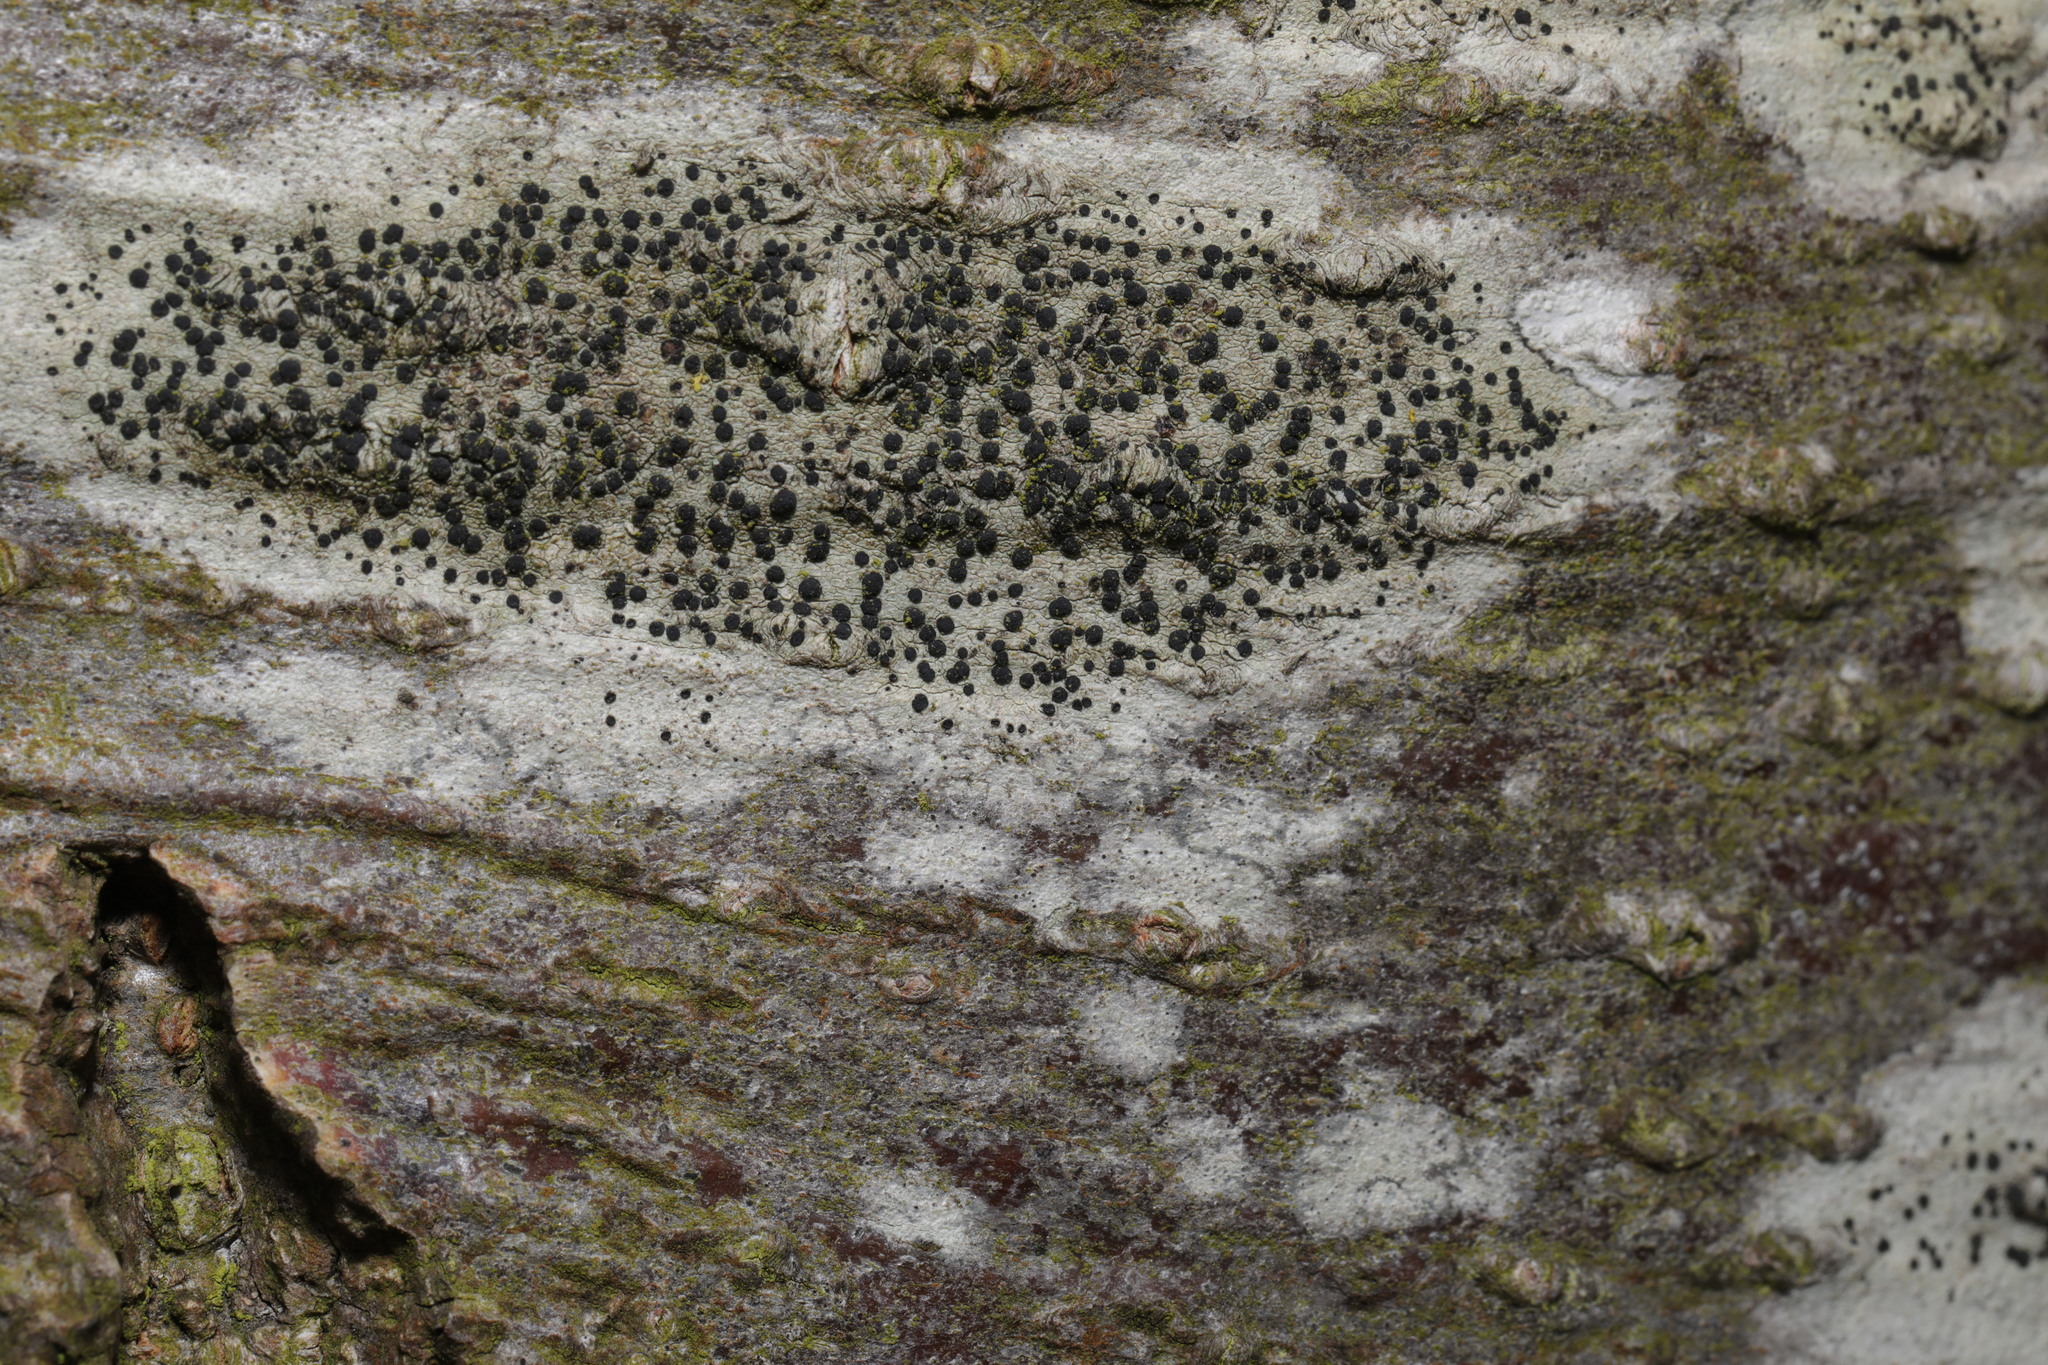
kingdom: Fungi
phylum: Ascomycota
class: Lecanoromycetes
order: Lecanorales
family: Lecanoraceae
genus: Lecidella
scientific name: Lecidella elaeochroma
